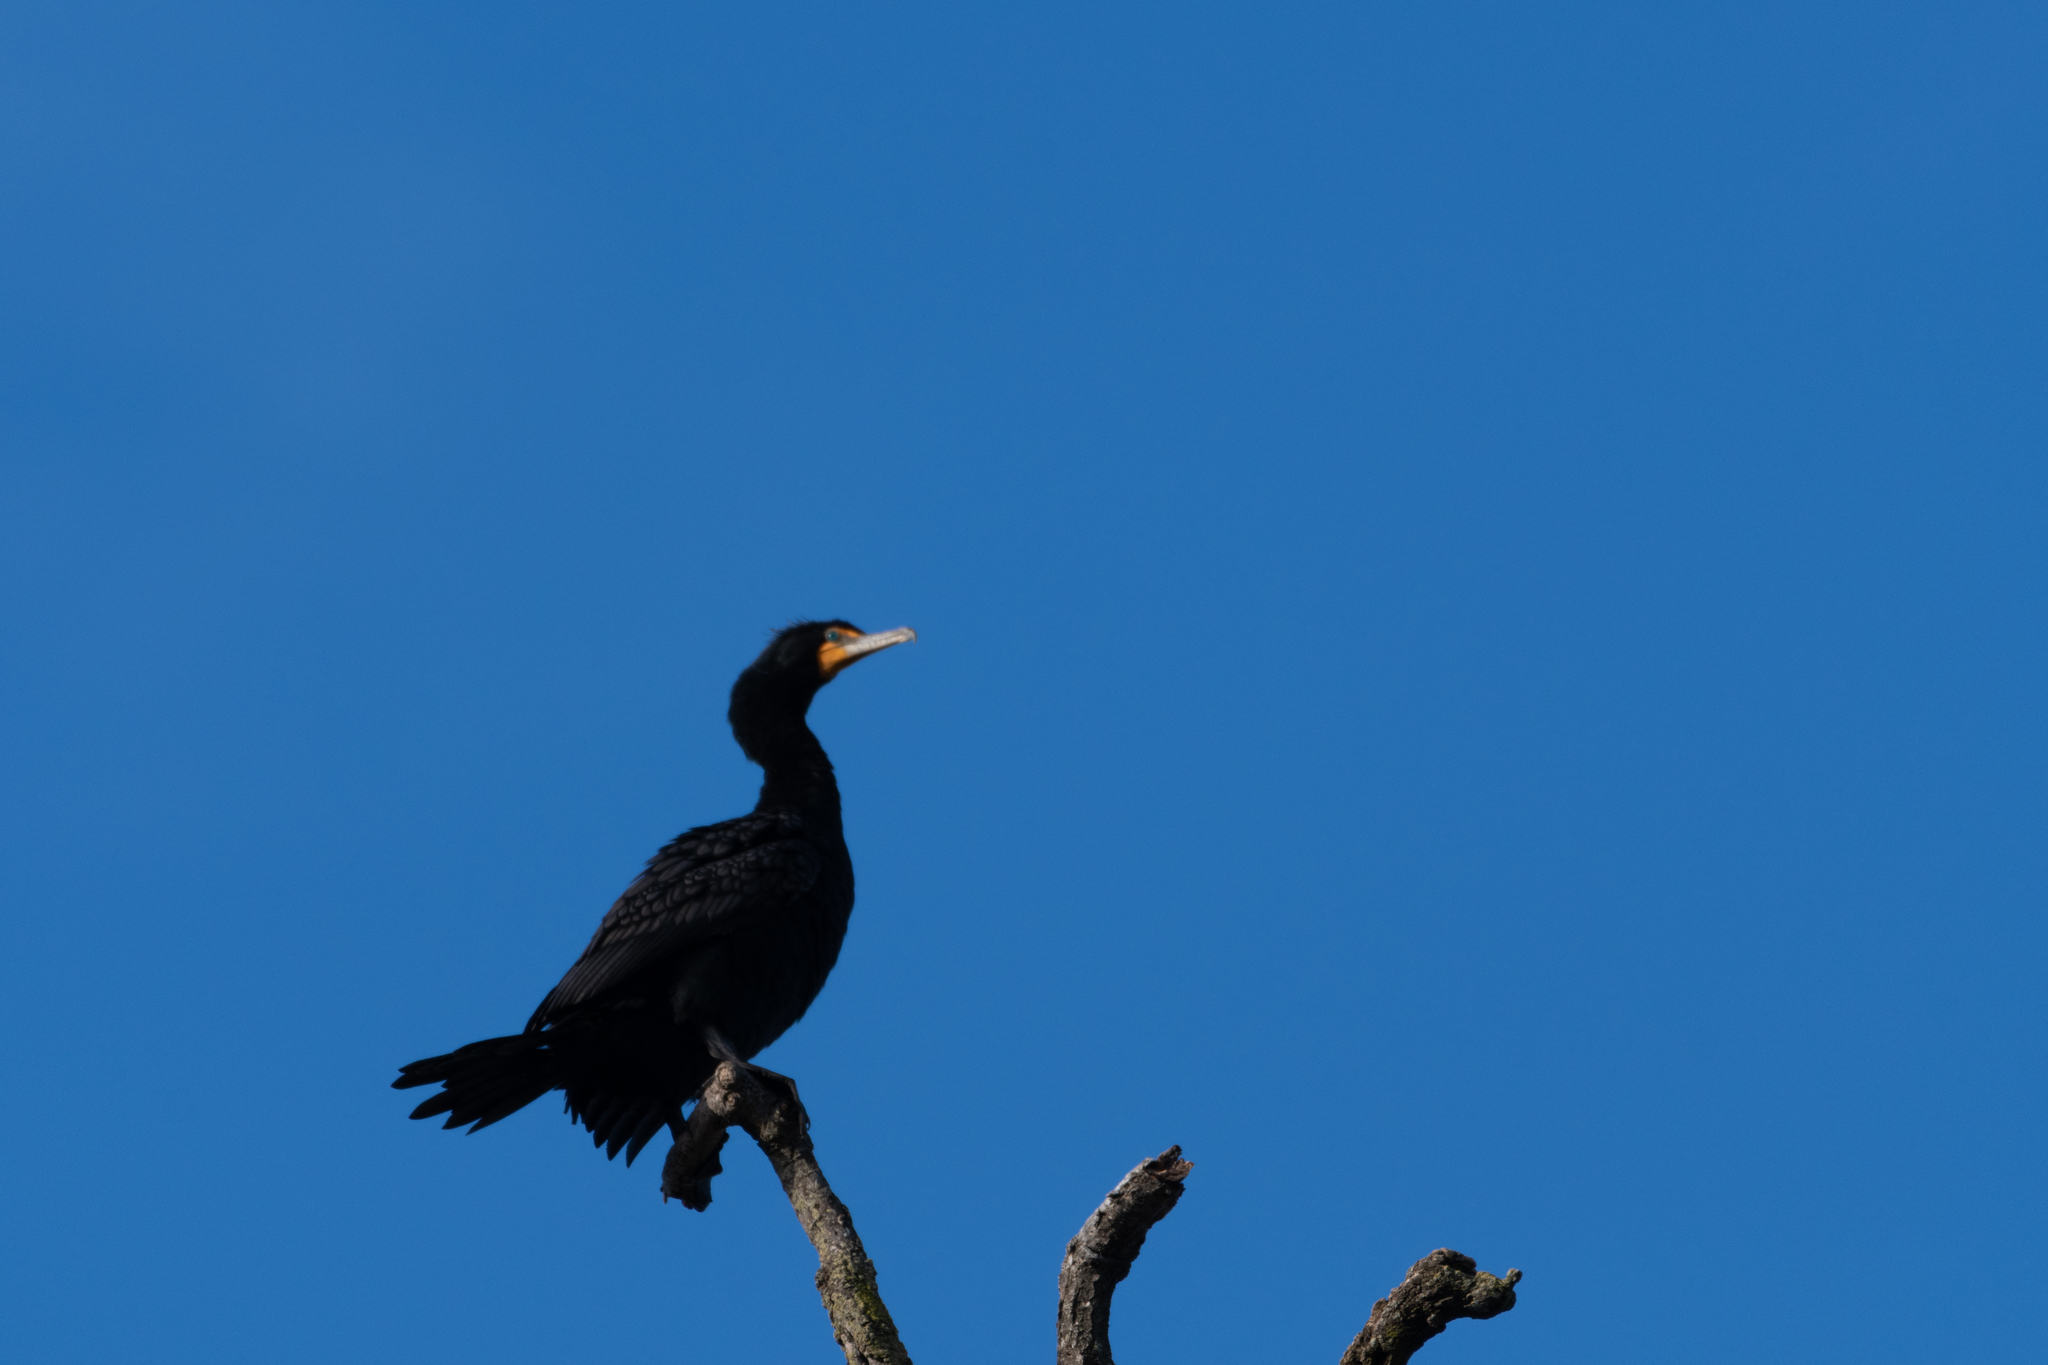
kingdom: Animalia
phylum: Chordata
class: Aves
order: Suliformes
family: Phalacrocoracidae
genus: Phalacrocorax
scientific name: Phalacrocorax auritus
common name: Double-crested cormorant
